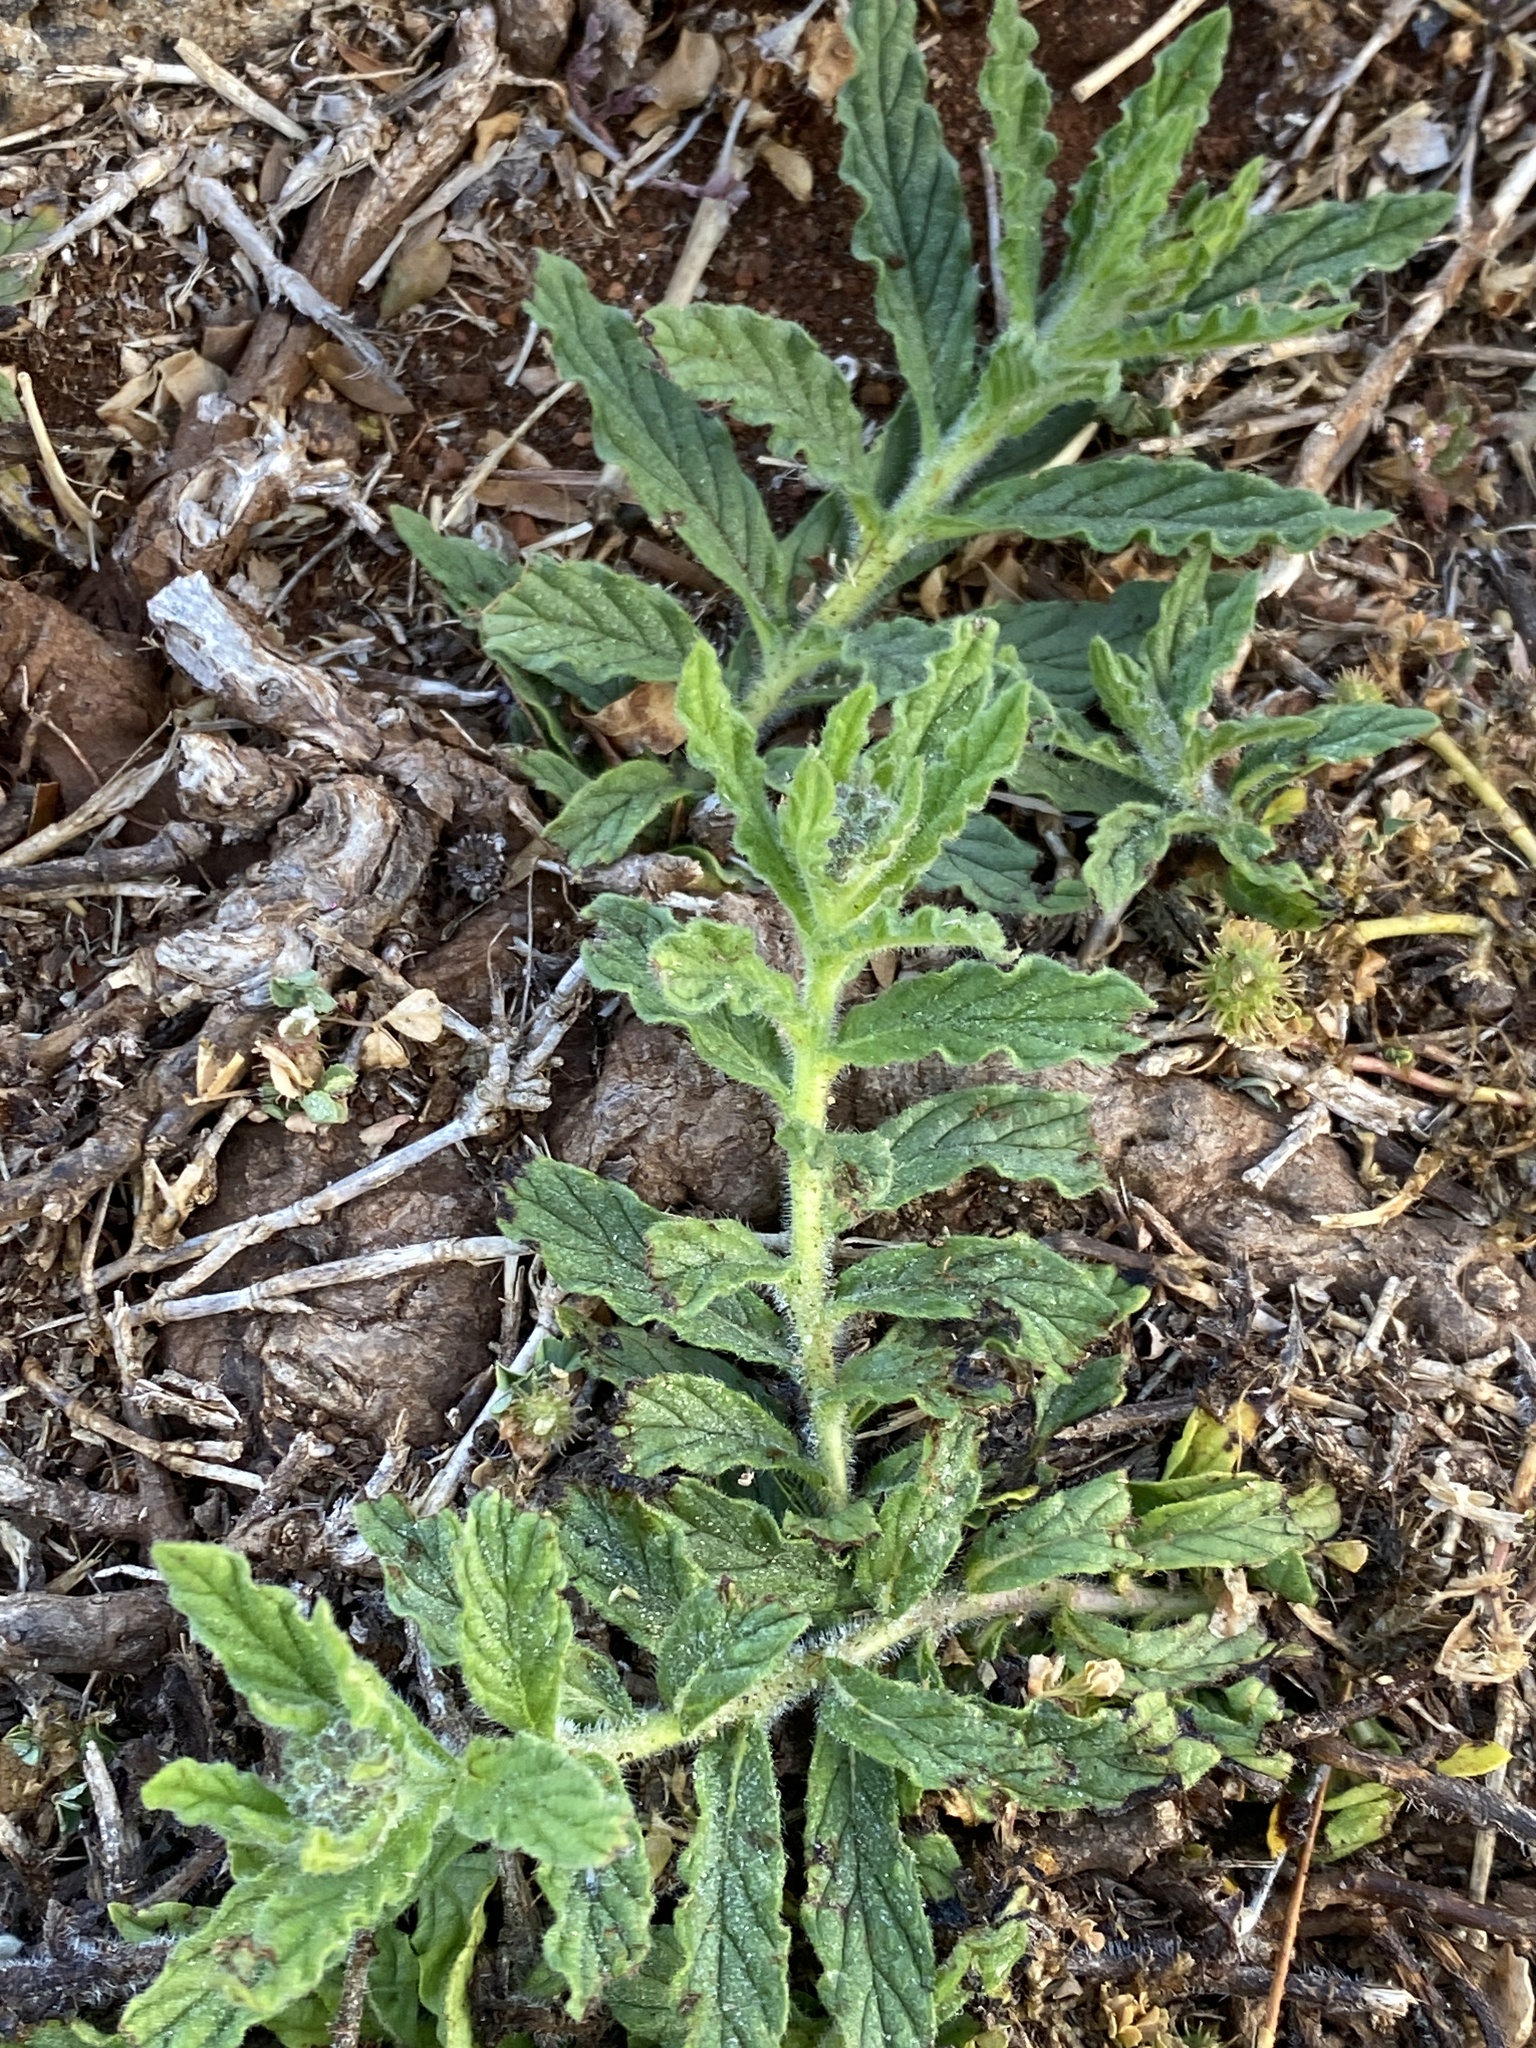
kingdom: Plantae
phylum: Tracheophyta
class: Magnoliopsida
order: Boraginales
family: Heliotropiaceae
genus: Heliotropium
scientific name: Heliotropium amplexicaule
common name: Clasping heliotrope
